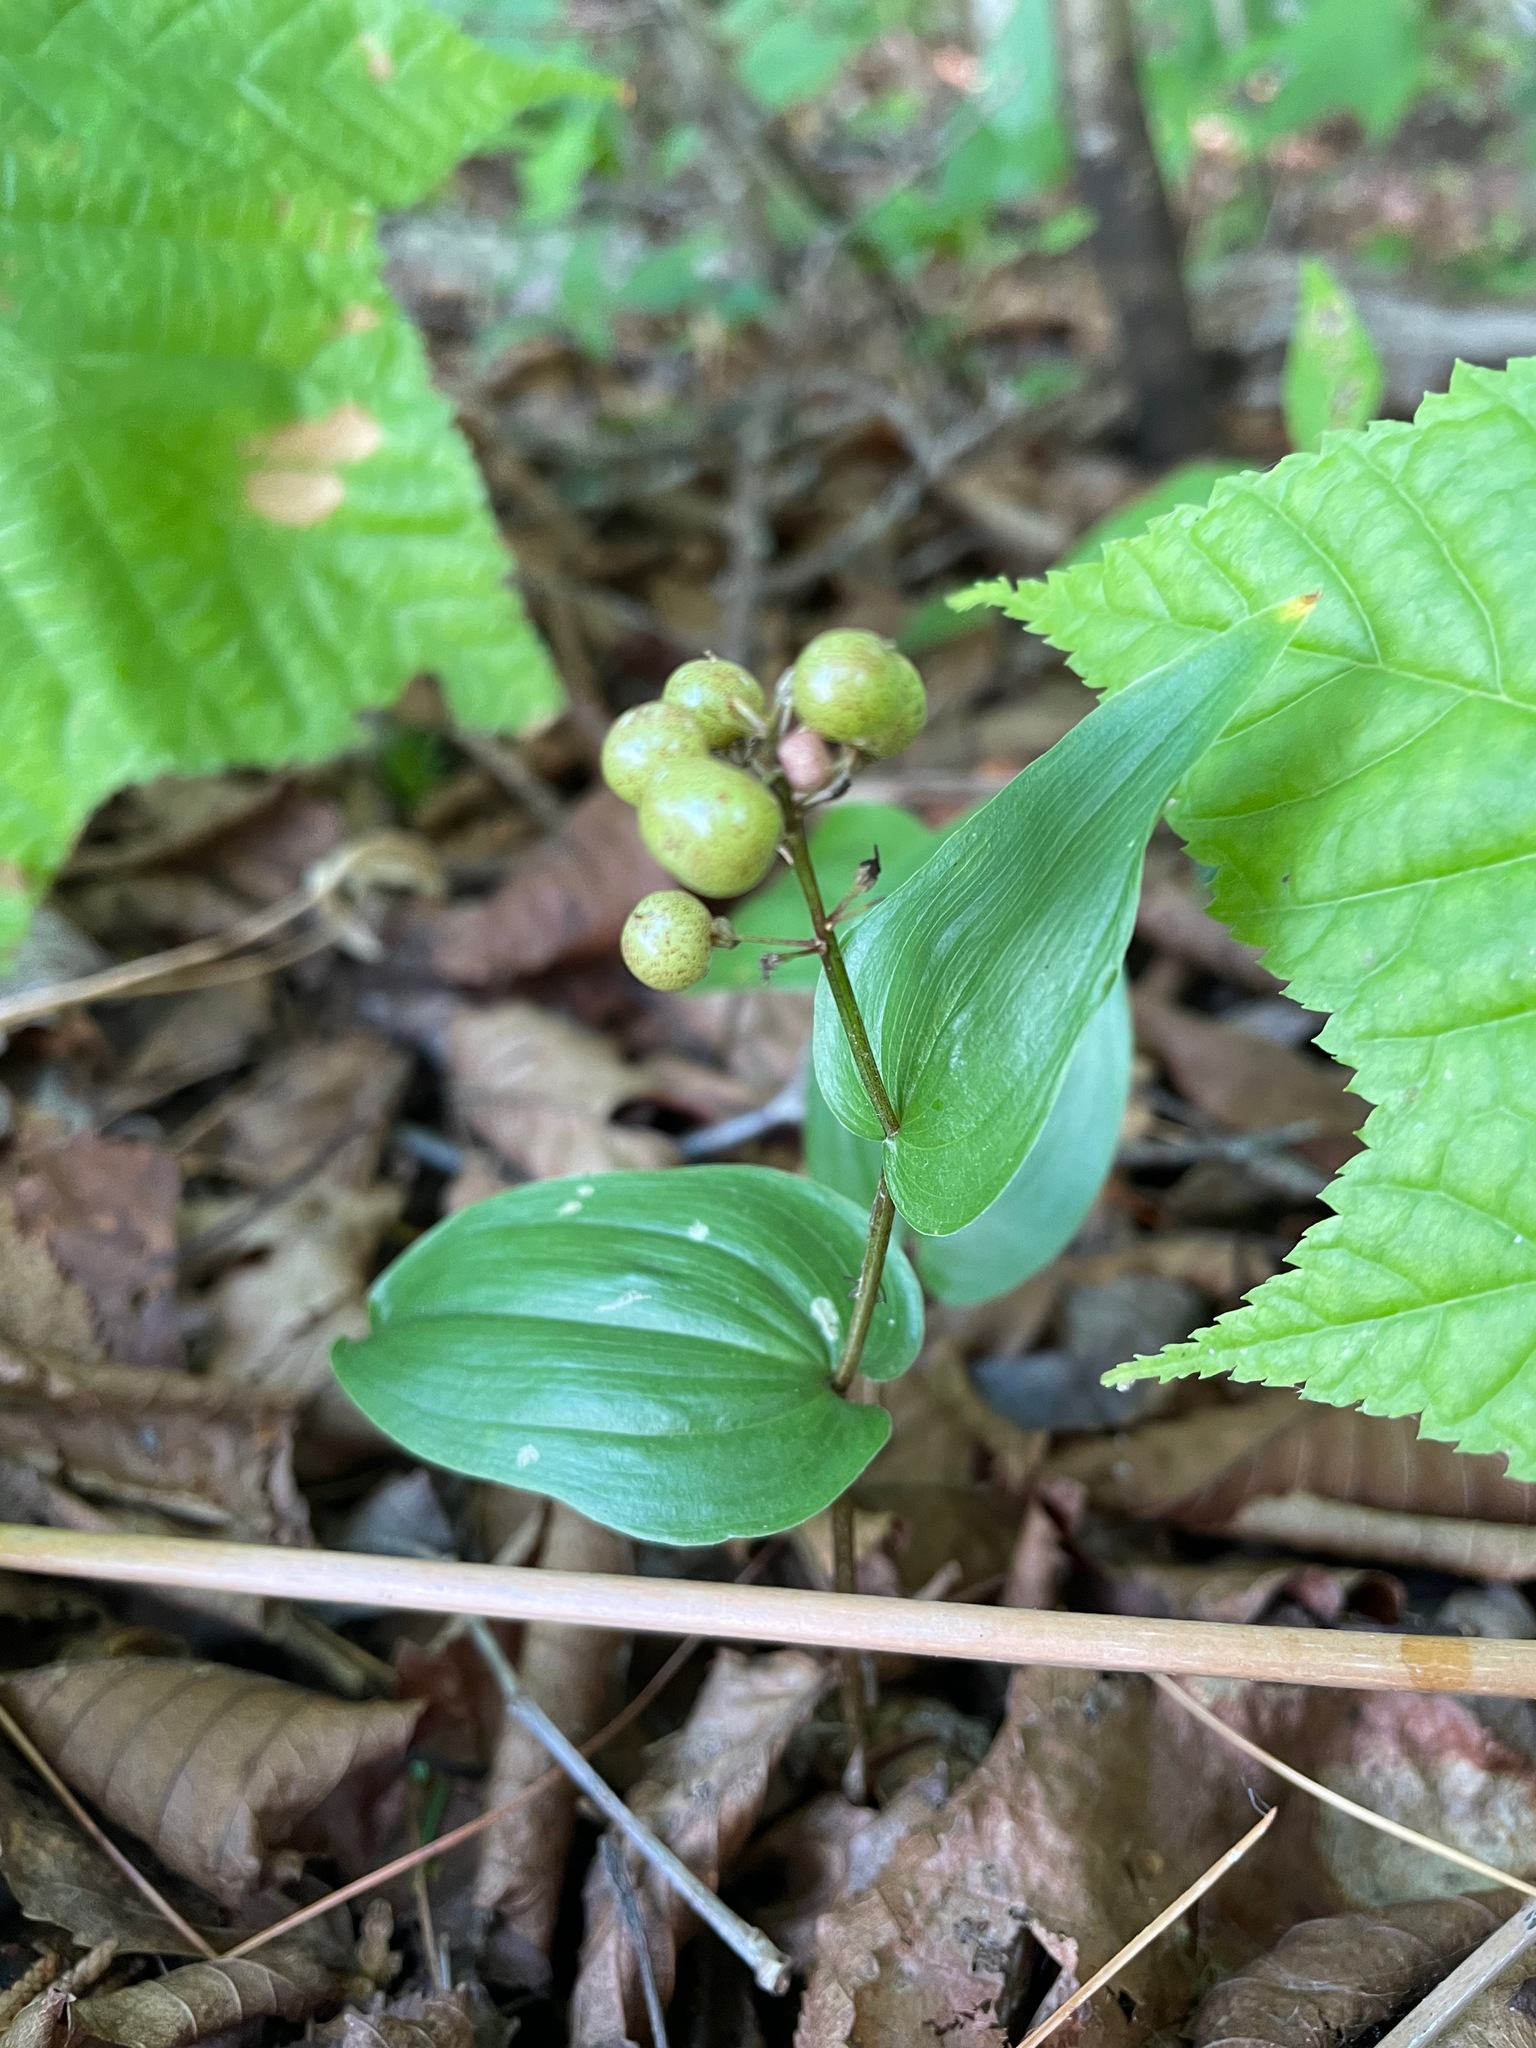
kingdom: Plantae
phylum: Tracheophyta
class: Liliopsida
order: Asparagales
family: Asparagaceae
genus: Maianthemum
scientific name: Maianthemum canadense
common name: False lily-of-the-valley
